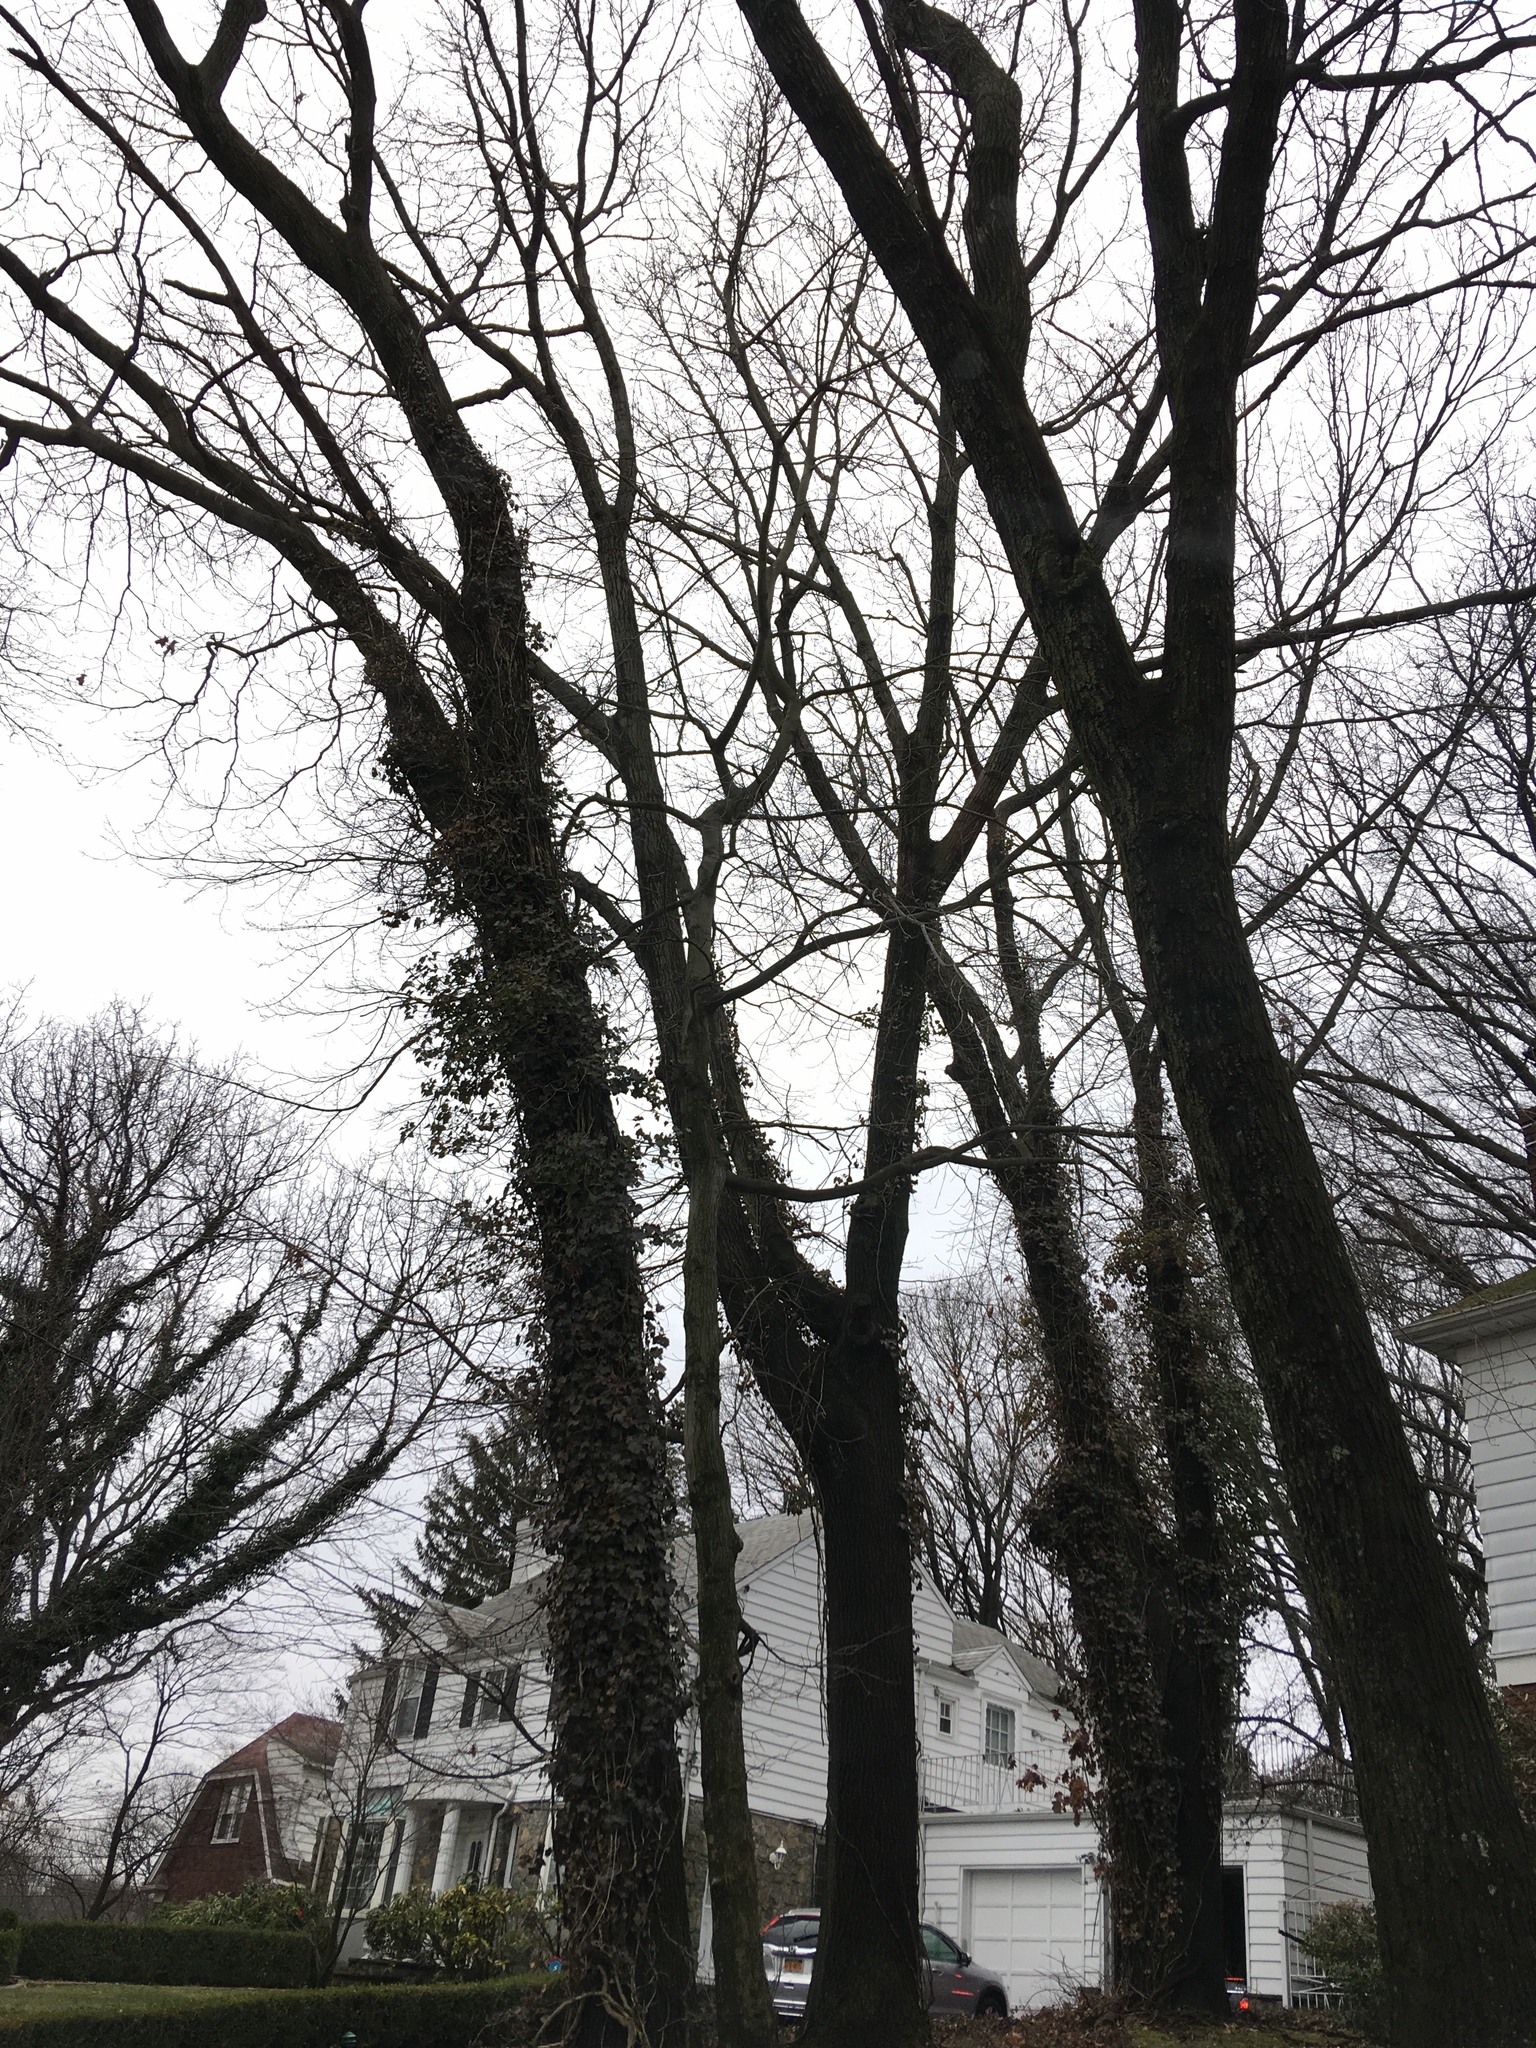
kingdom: Plantae
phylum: Tracheophyta
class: Magnoliopsida
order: Apiales
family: Araliaceae
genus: Hedera
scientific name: Hedera helix
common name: Ivy
